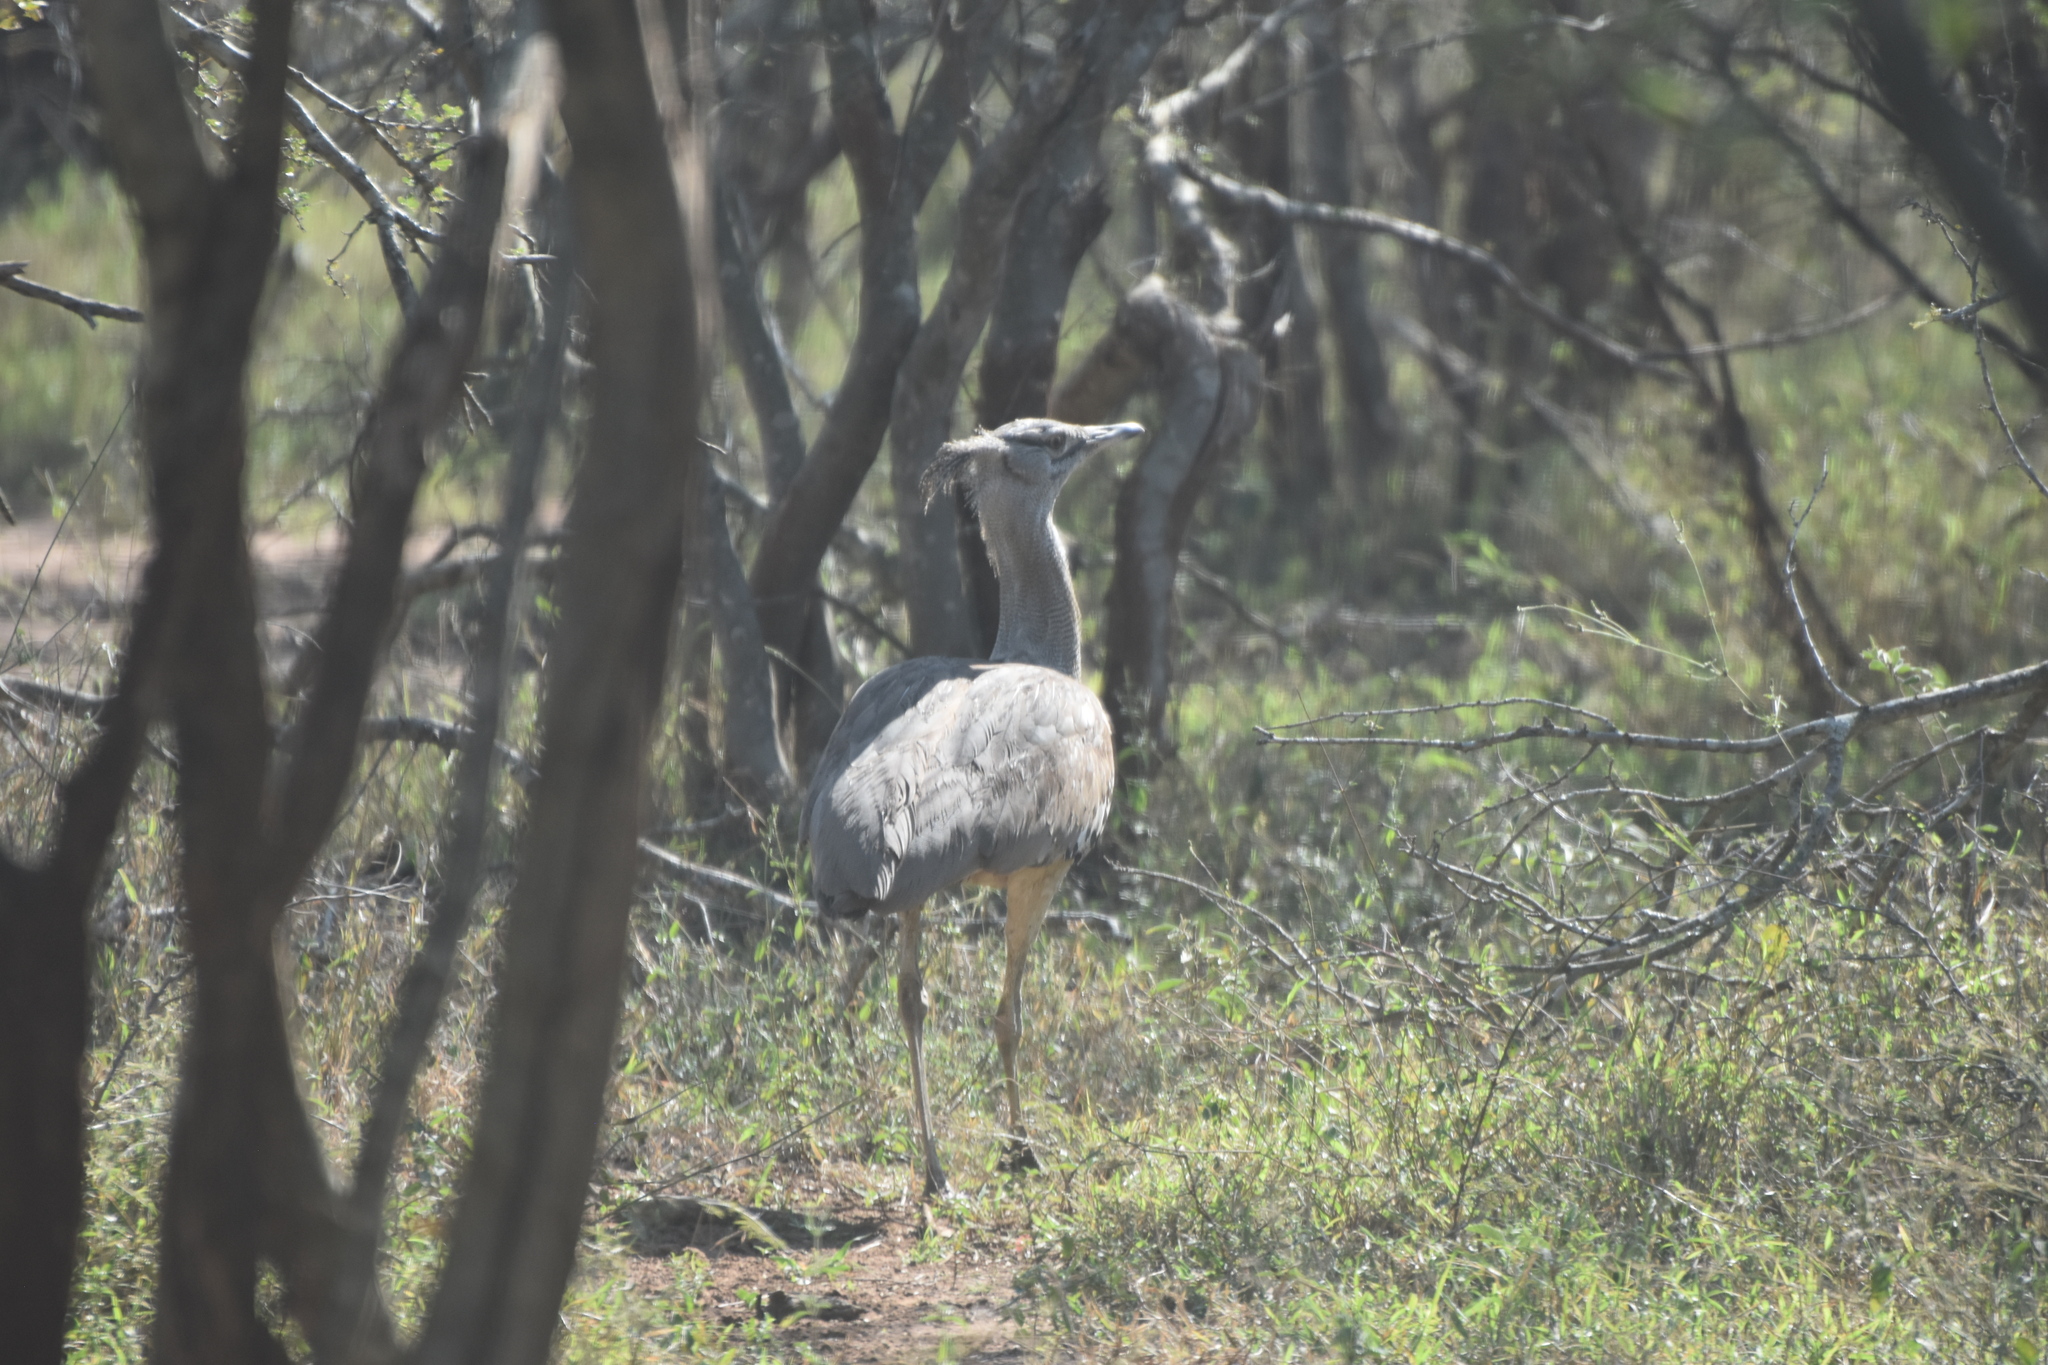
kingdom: Animalia
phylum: Chordata
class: Aves
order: Otidiformes
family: Otididae
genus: Ardeotis
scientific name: Ardeotis kori
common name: Kori bustard
